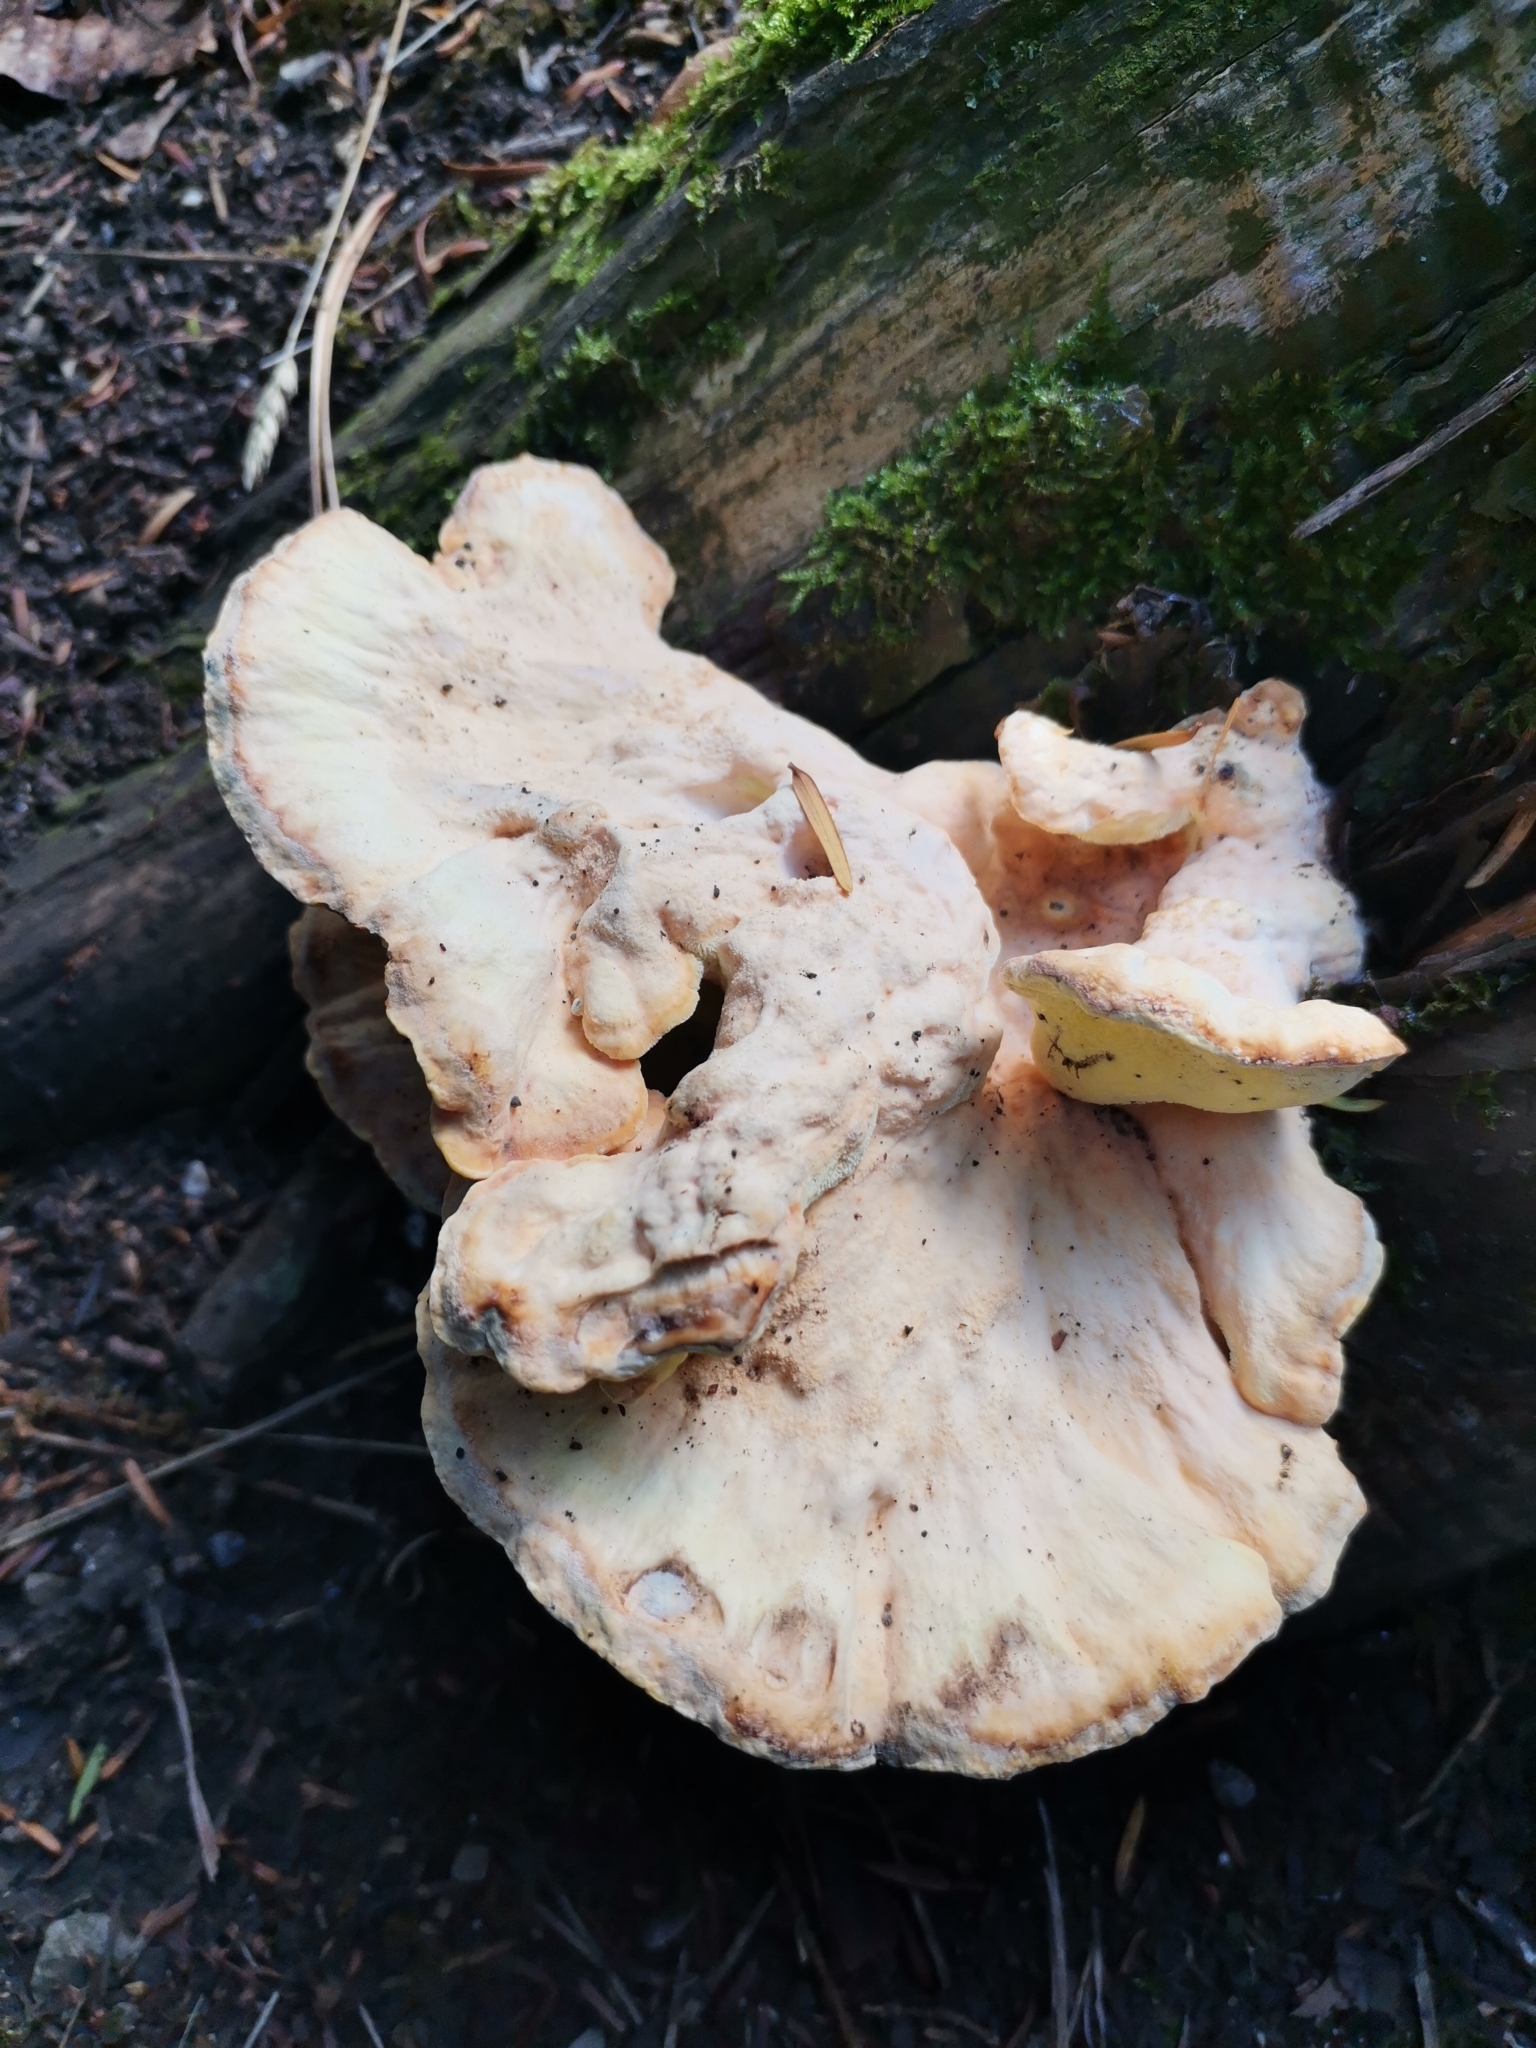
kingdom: Fungi
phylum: Basidiomycota
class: Agaricomycetes
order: Polyporales
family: Laetiporaceae
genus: Laetiporus
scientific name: Laetiporus sulphureus
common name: Chicken of the woods
